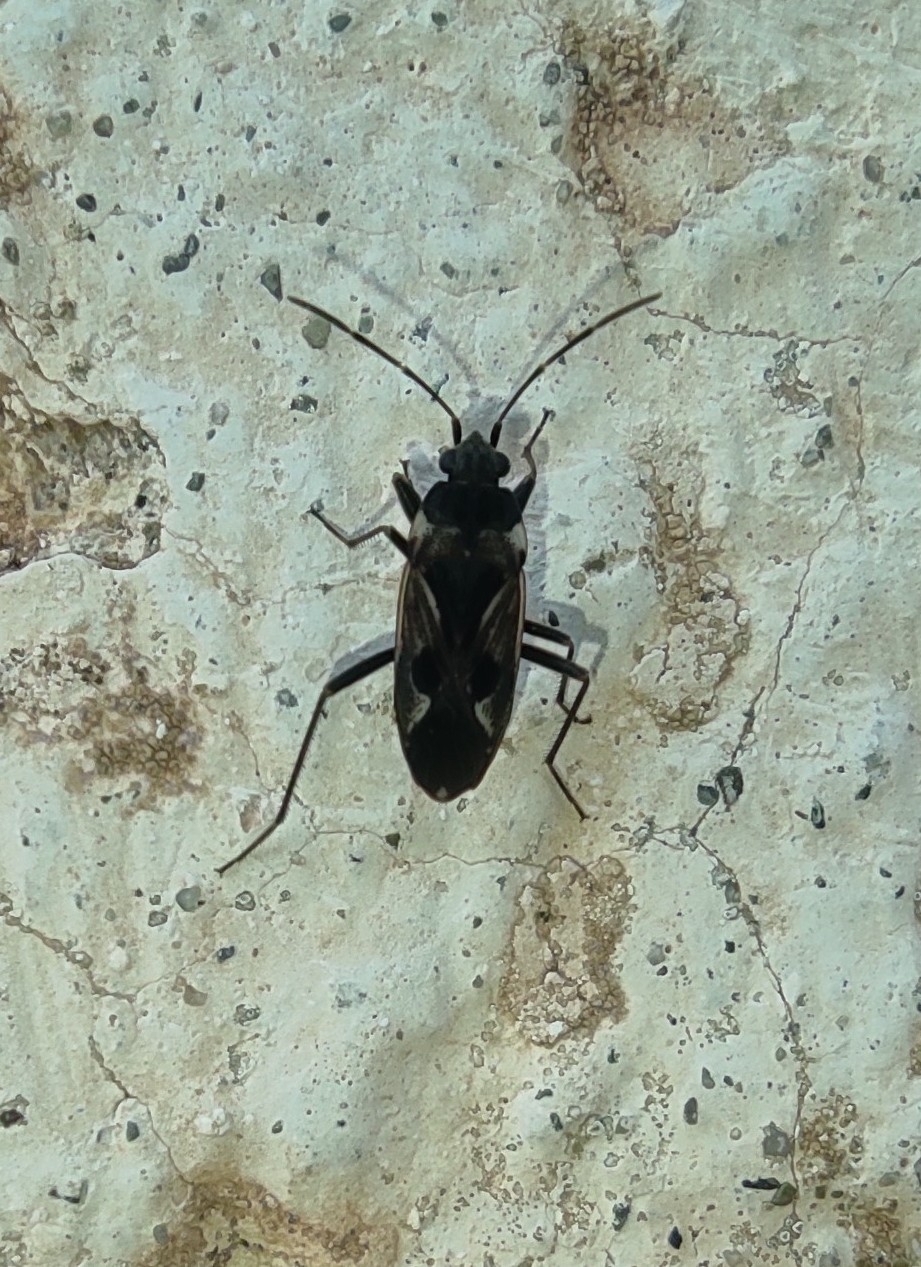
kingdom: Animalia
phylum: Arthropoda
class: Insecta
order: Hemiptera
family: Rhyparochromidae
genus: Rhyparochromus
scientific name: Rhyparochromus vulgaris
